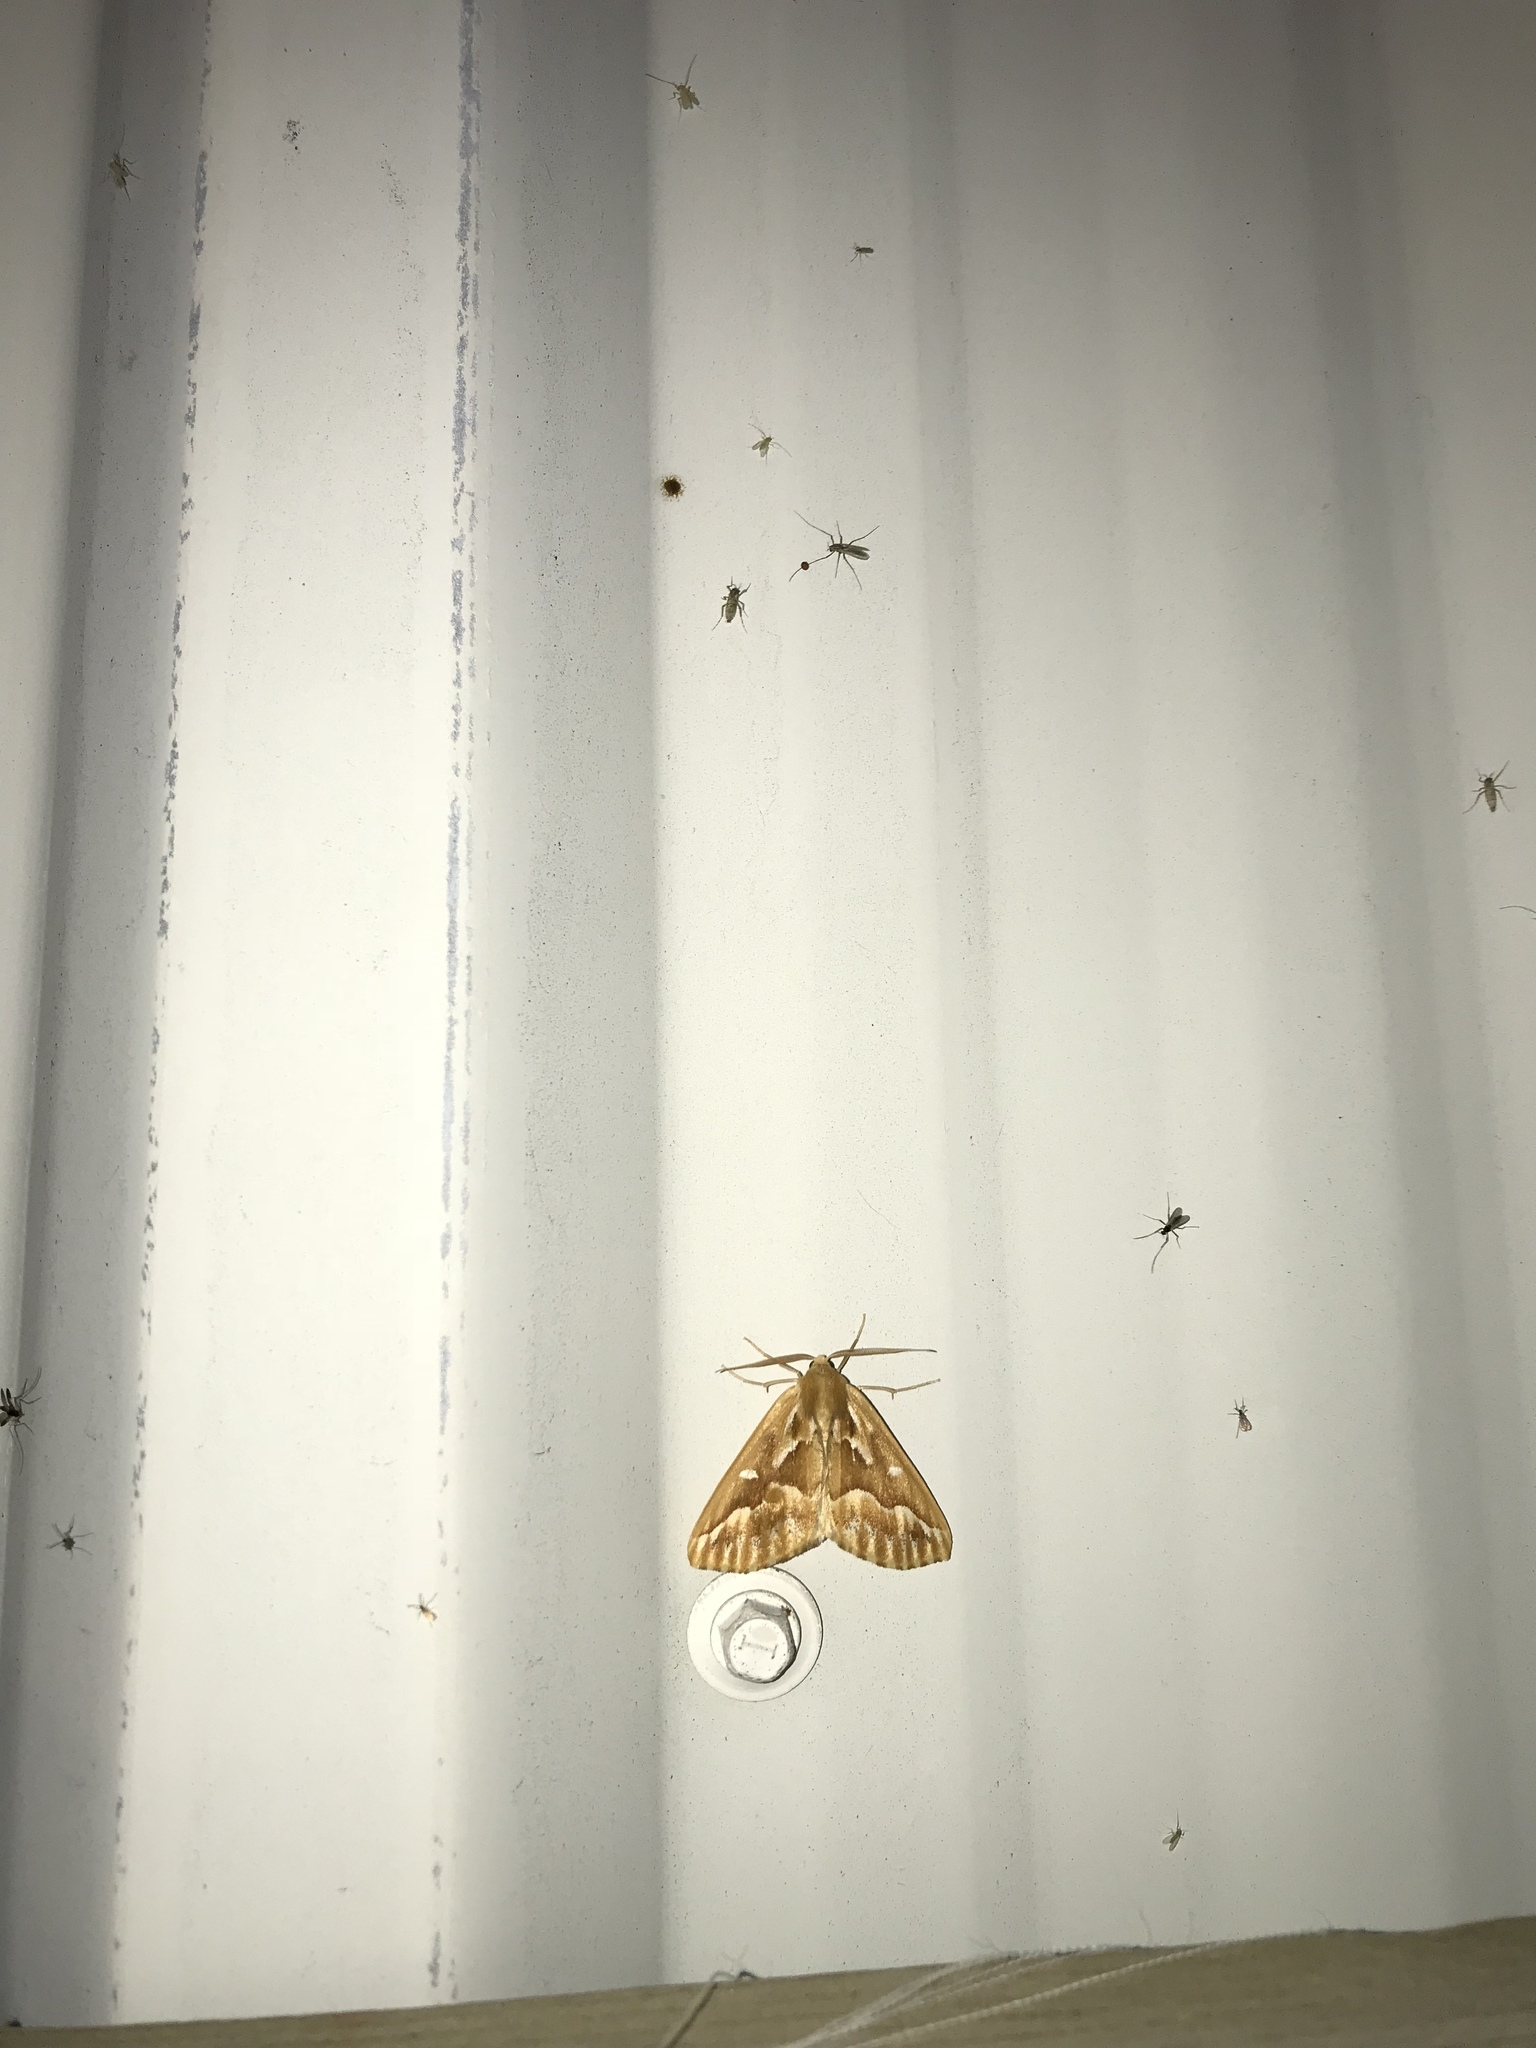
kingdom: Animalia
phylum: Arthropoda
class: Insecta
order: Lepidoptera
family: Geometridae
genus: Caripeta
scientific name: Caripeta piniata
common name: Northern pine looper moth
